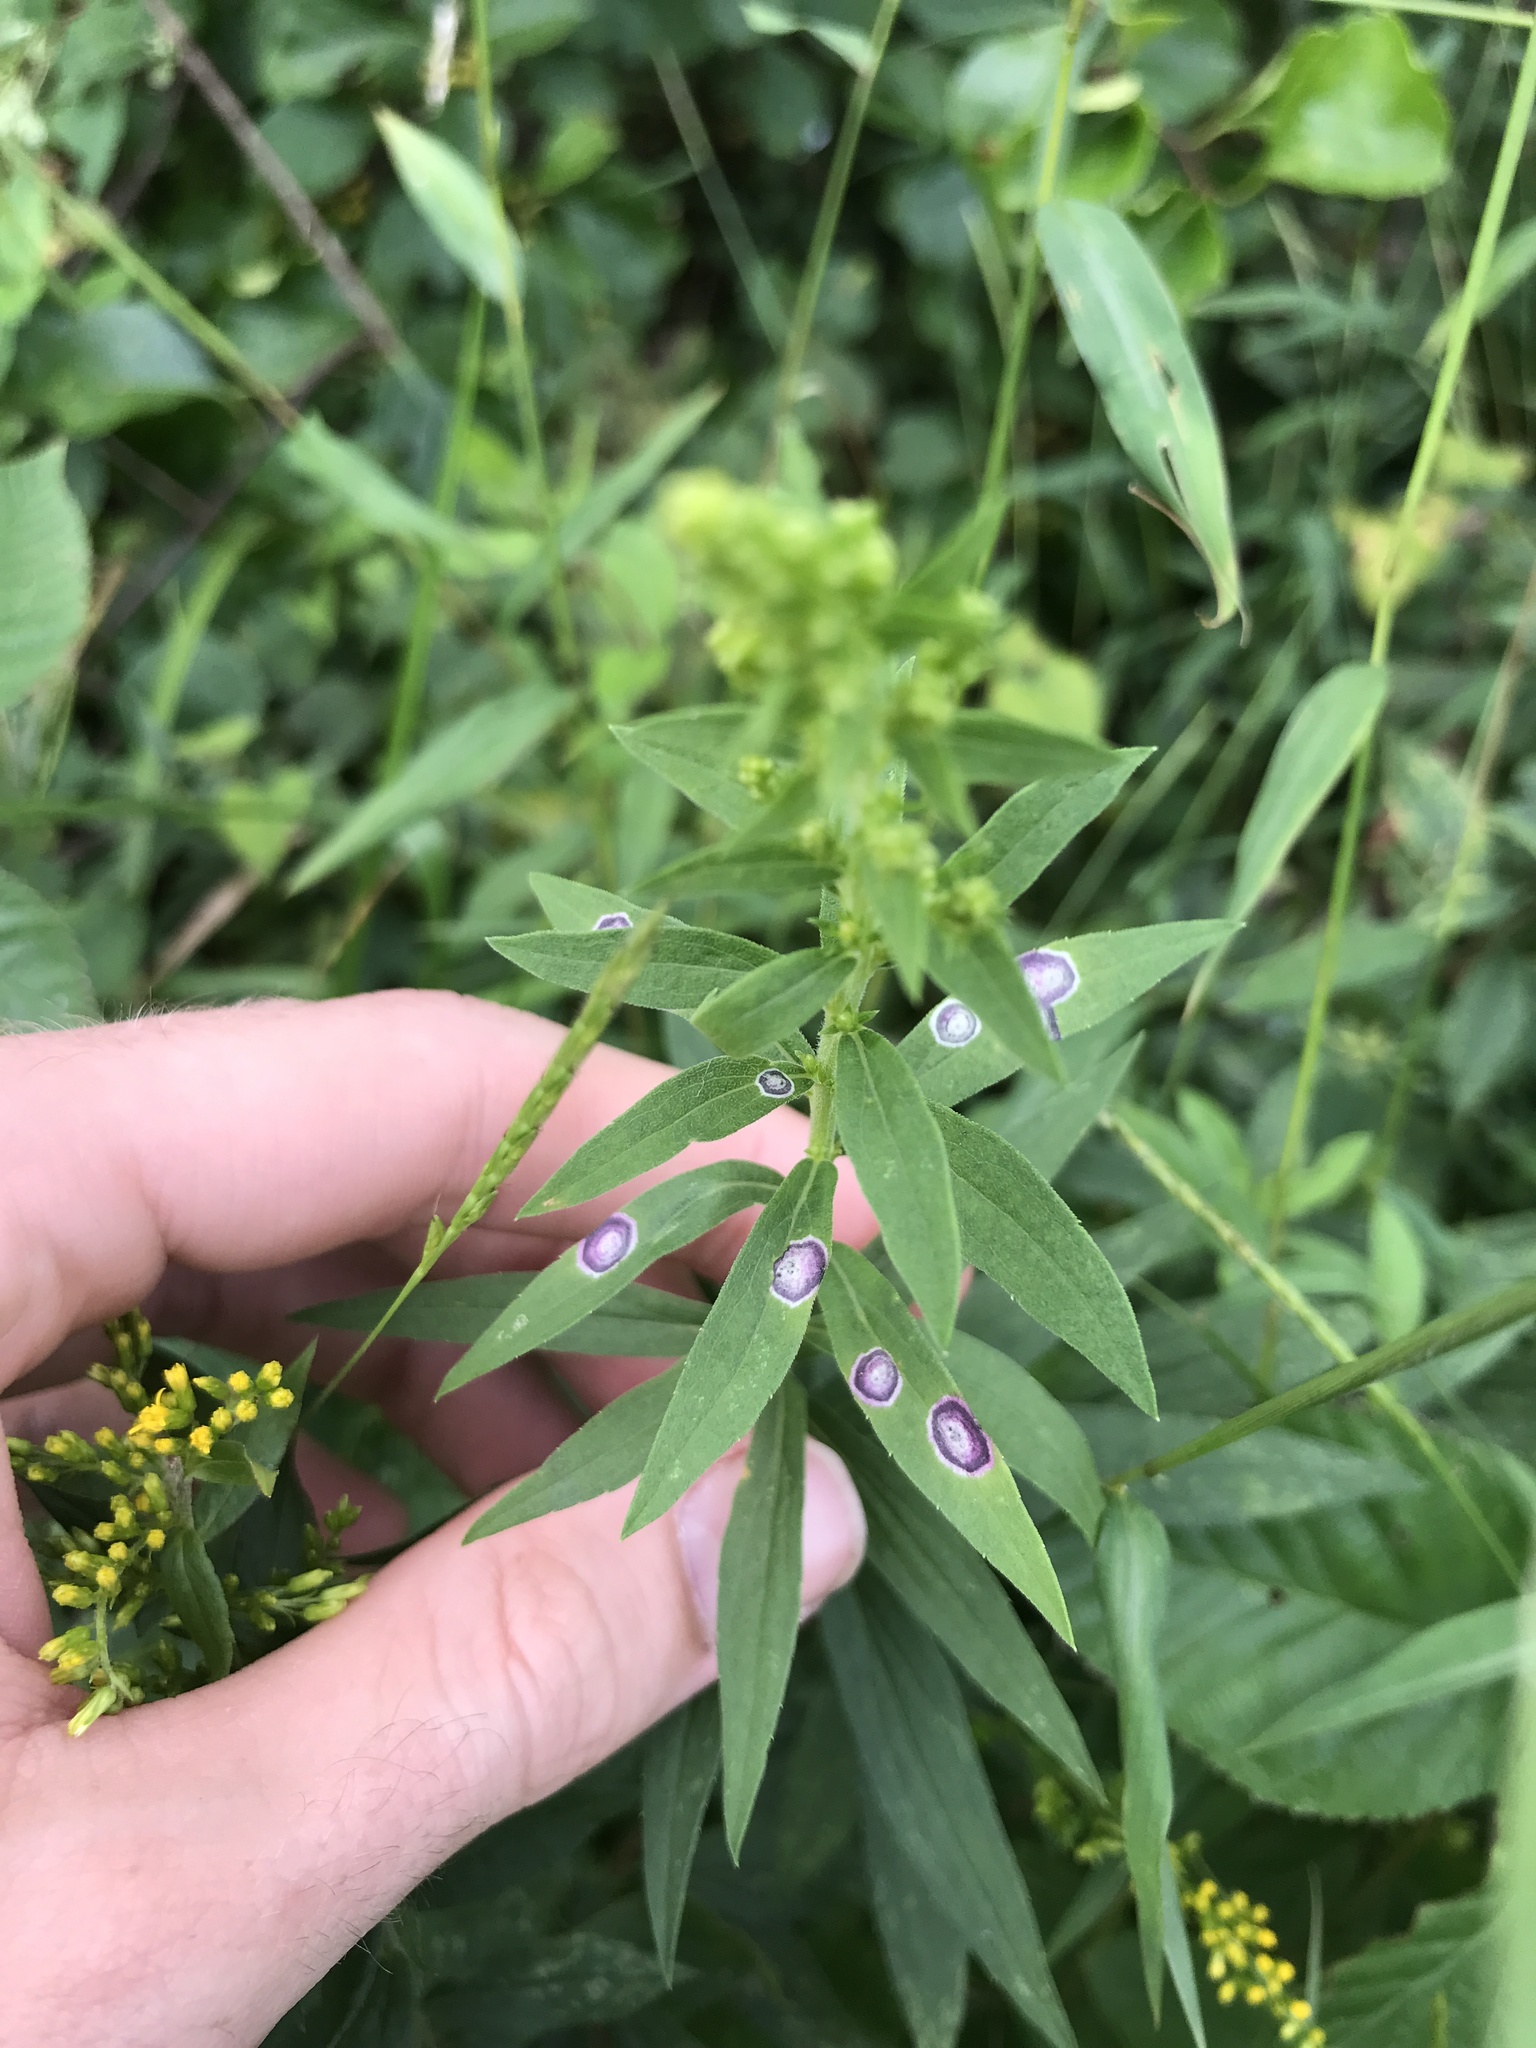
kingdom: Animalia
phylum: Arthropoda
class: Insecta
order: Diptera
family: Cecidomyiidae
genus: Asteromyia
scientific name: Asteromyia carbonifera
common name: Carbonifera goldenrod gall midge
